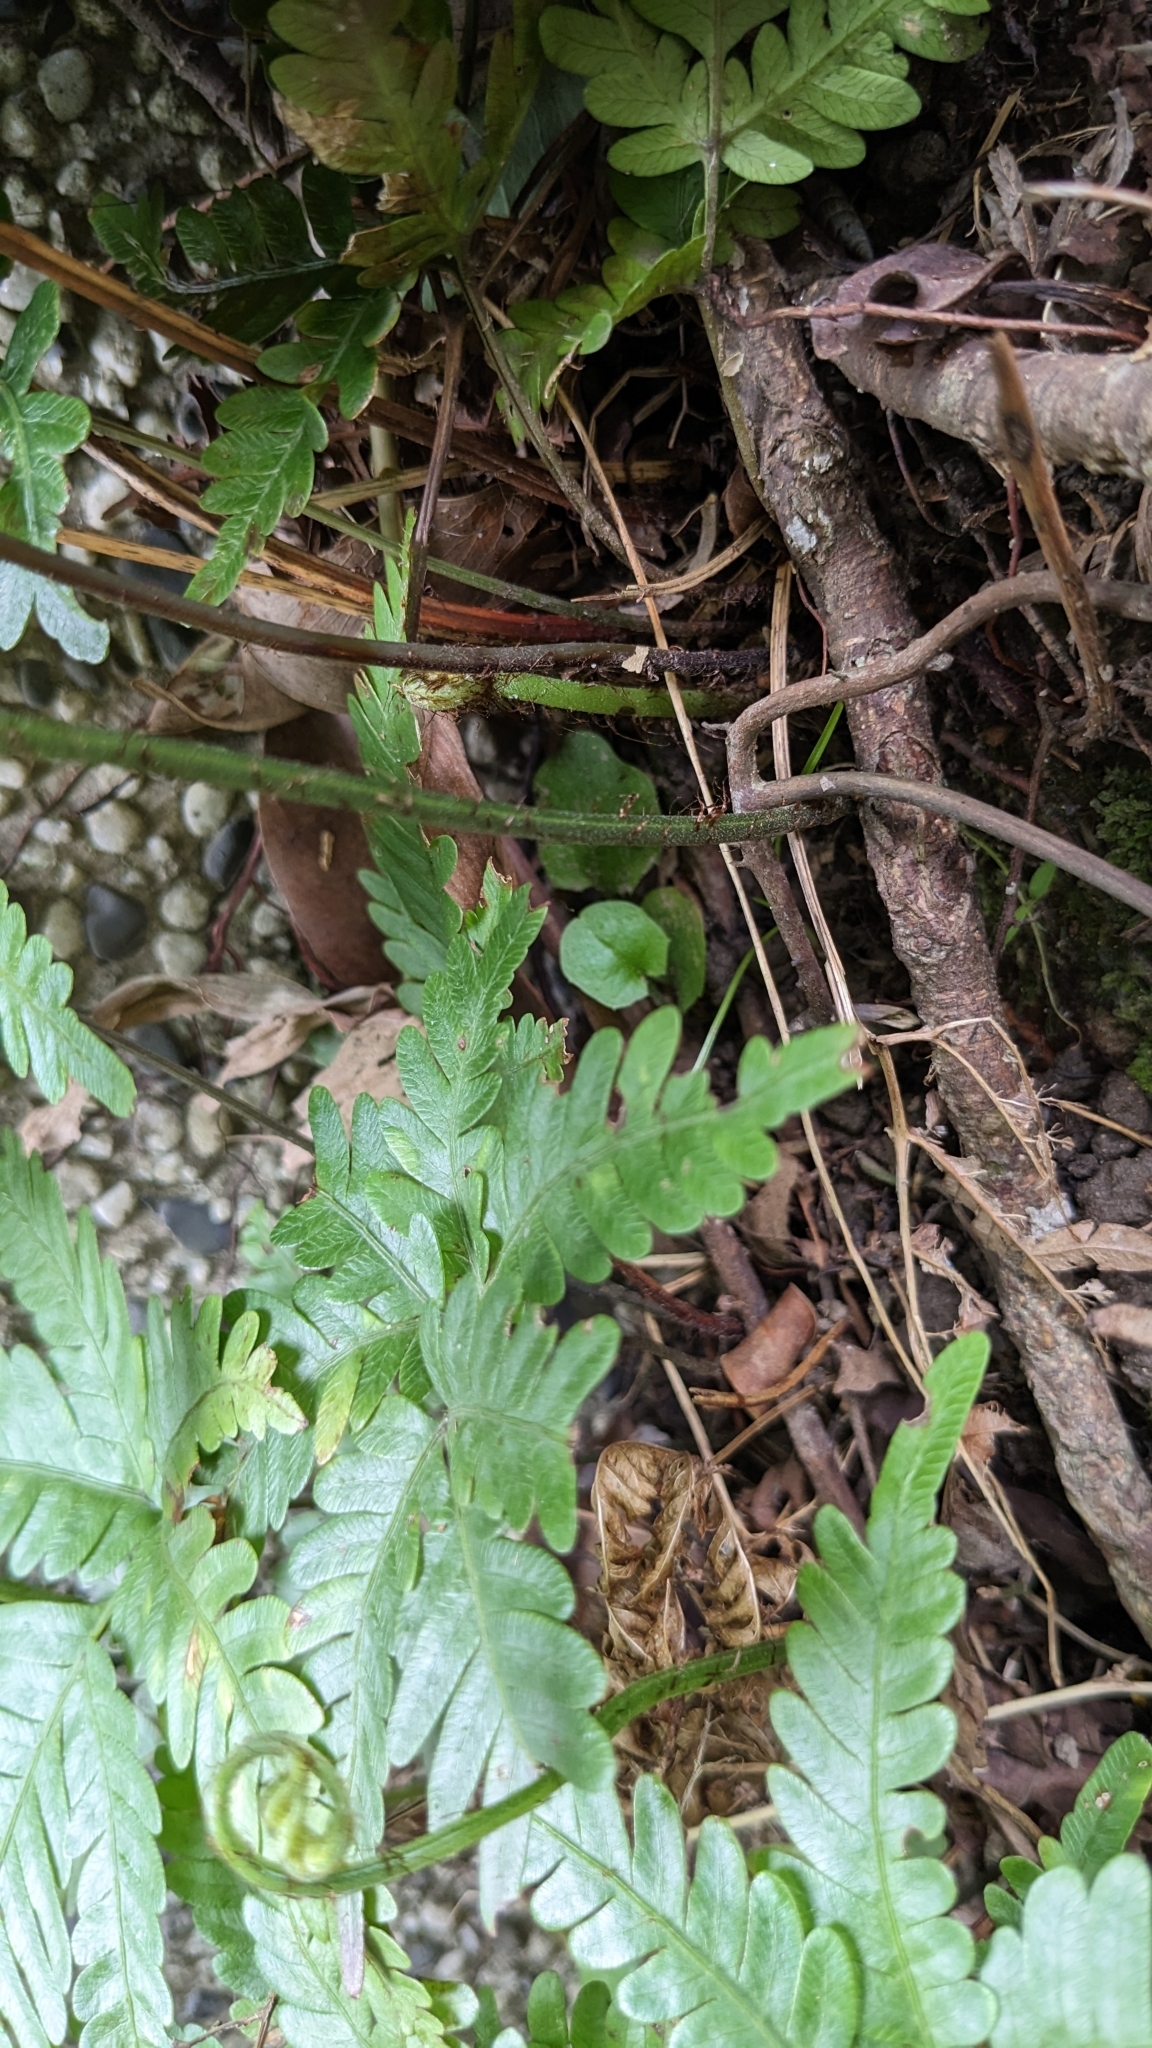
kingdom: Plantae
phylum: Tracheophyta
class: Polypodiopsida
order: Polypodiales
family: Pteridaceae
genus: Pteris
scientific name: Pteris fauriei
